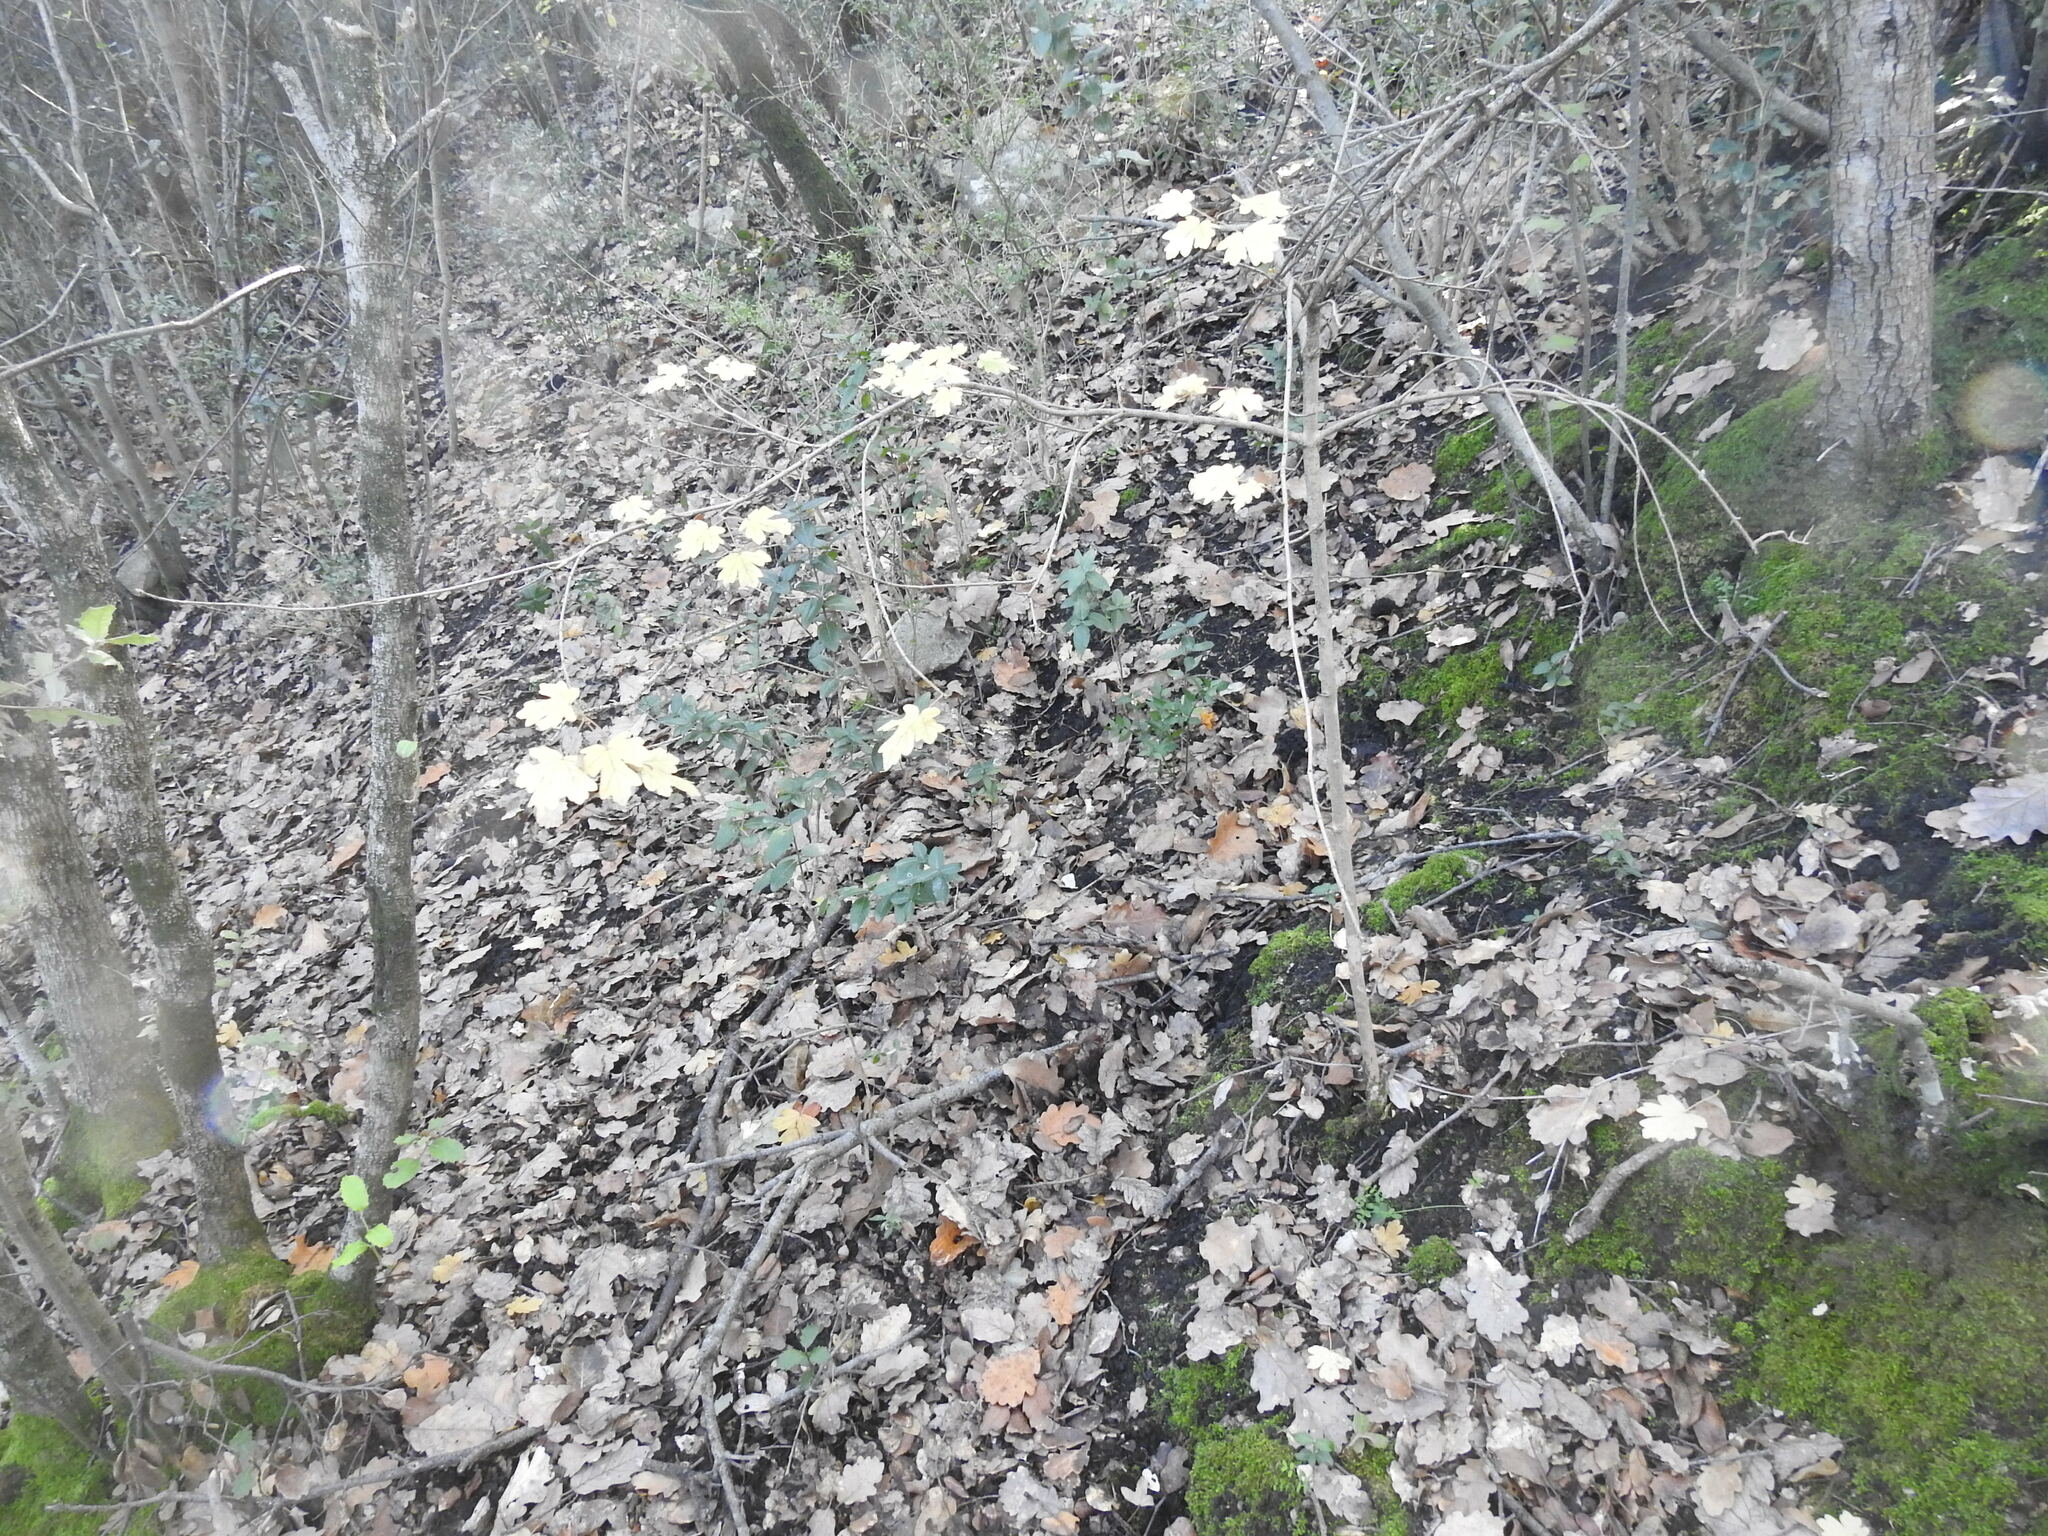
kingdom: Plantae
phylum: Tracheophyta
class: Magnoliopsida
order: Sapindales
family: Sapindaceae
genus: Acer
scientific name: Acer campestre
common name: Field maple
